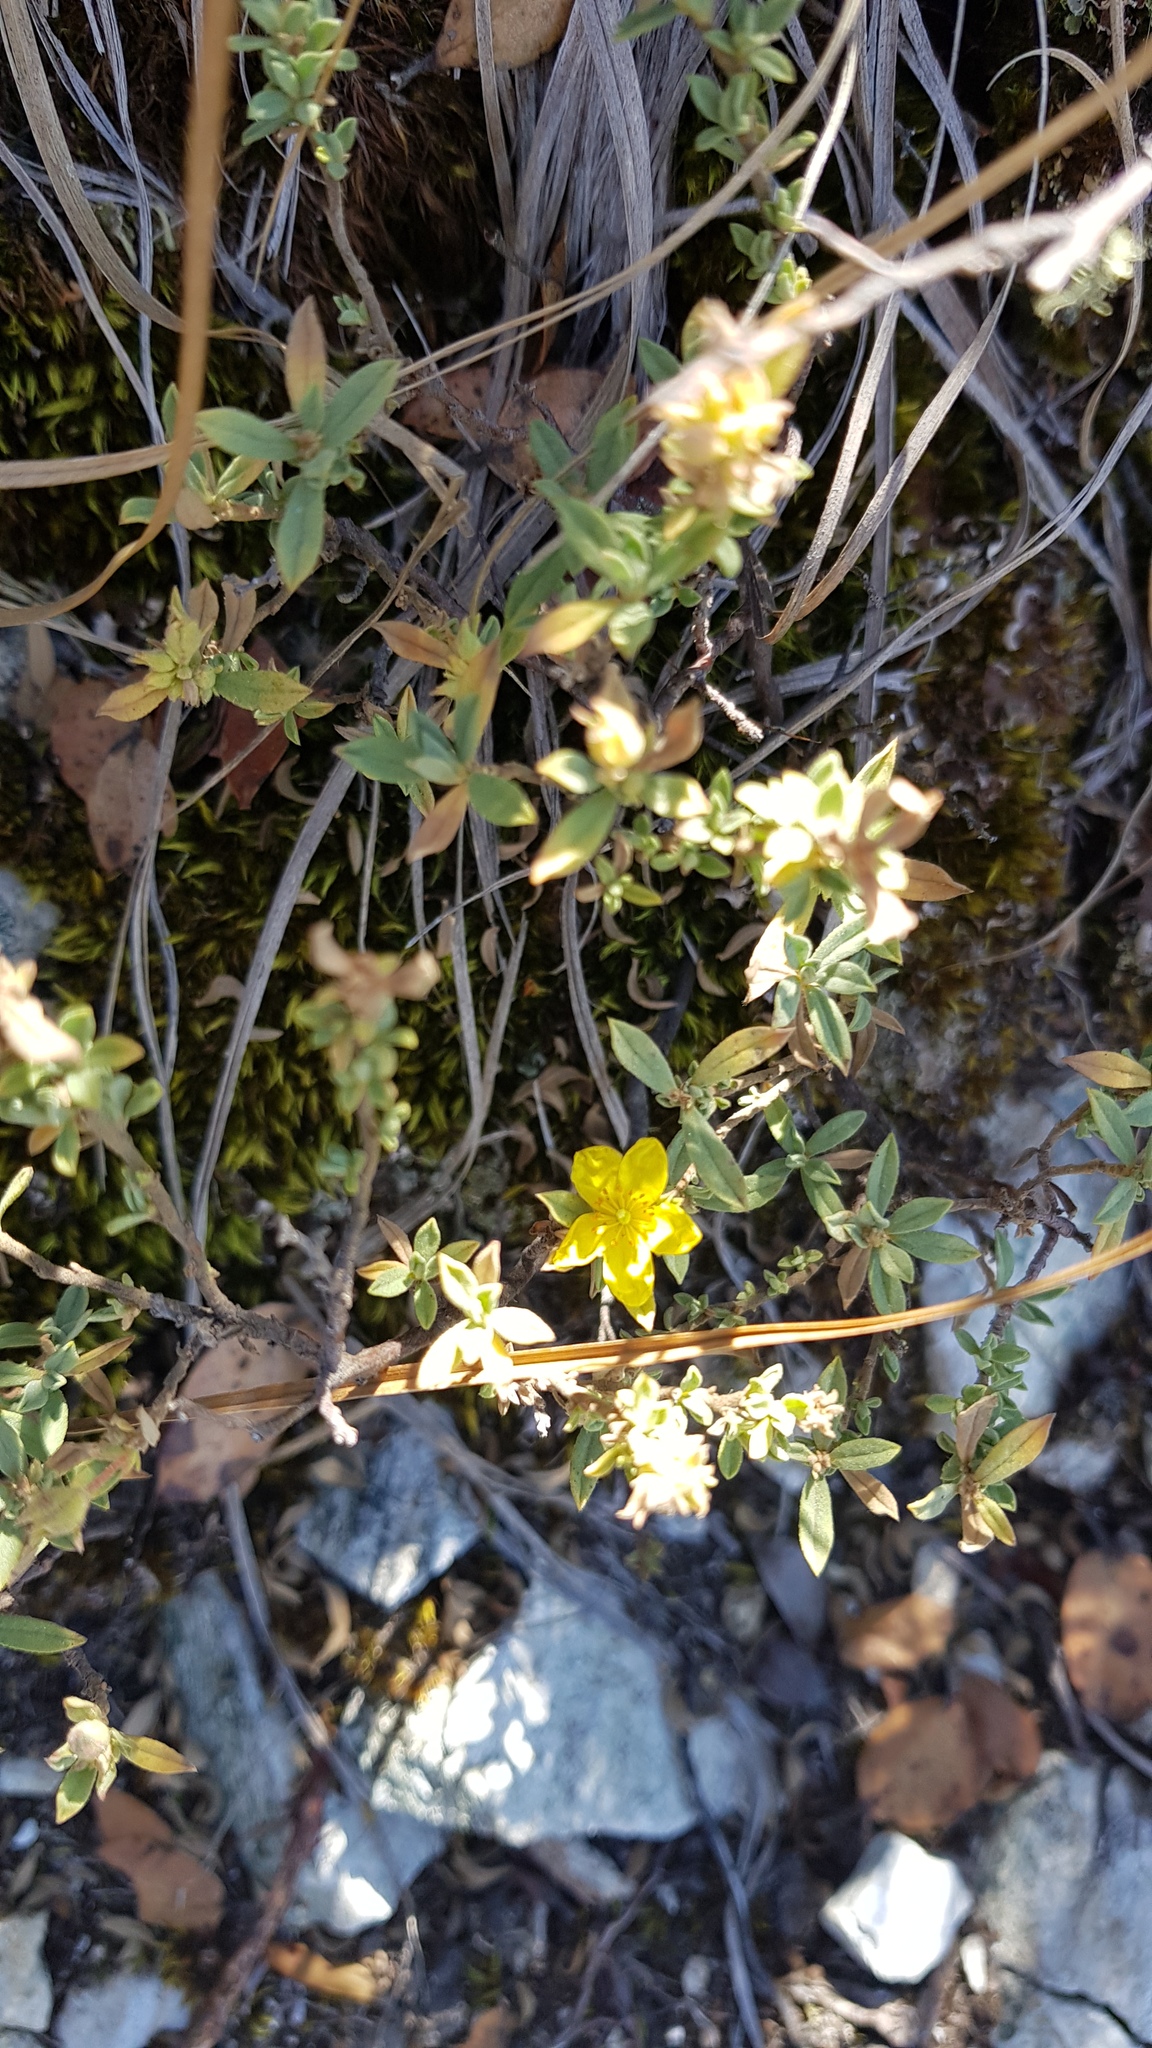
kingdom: Plantae
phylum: Tracheophyta
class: Magnoliopsida
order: Malvales
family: Cistaceae
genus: Crocanthemum
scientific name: Crocanthemum glomeratum
